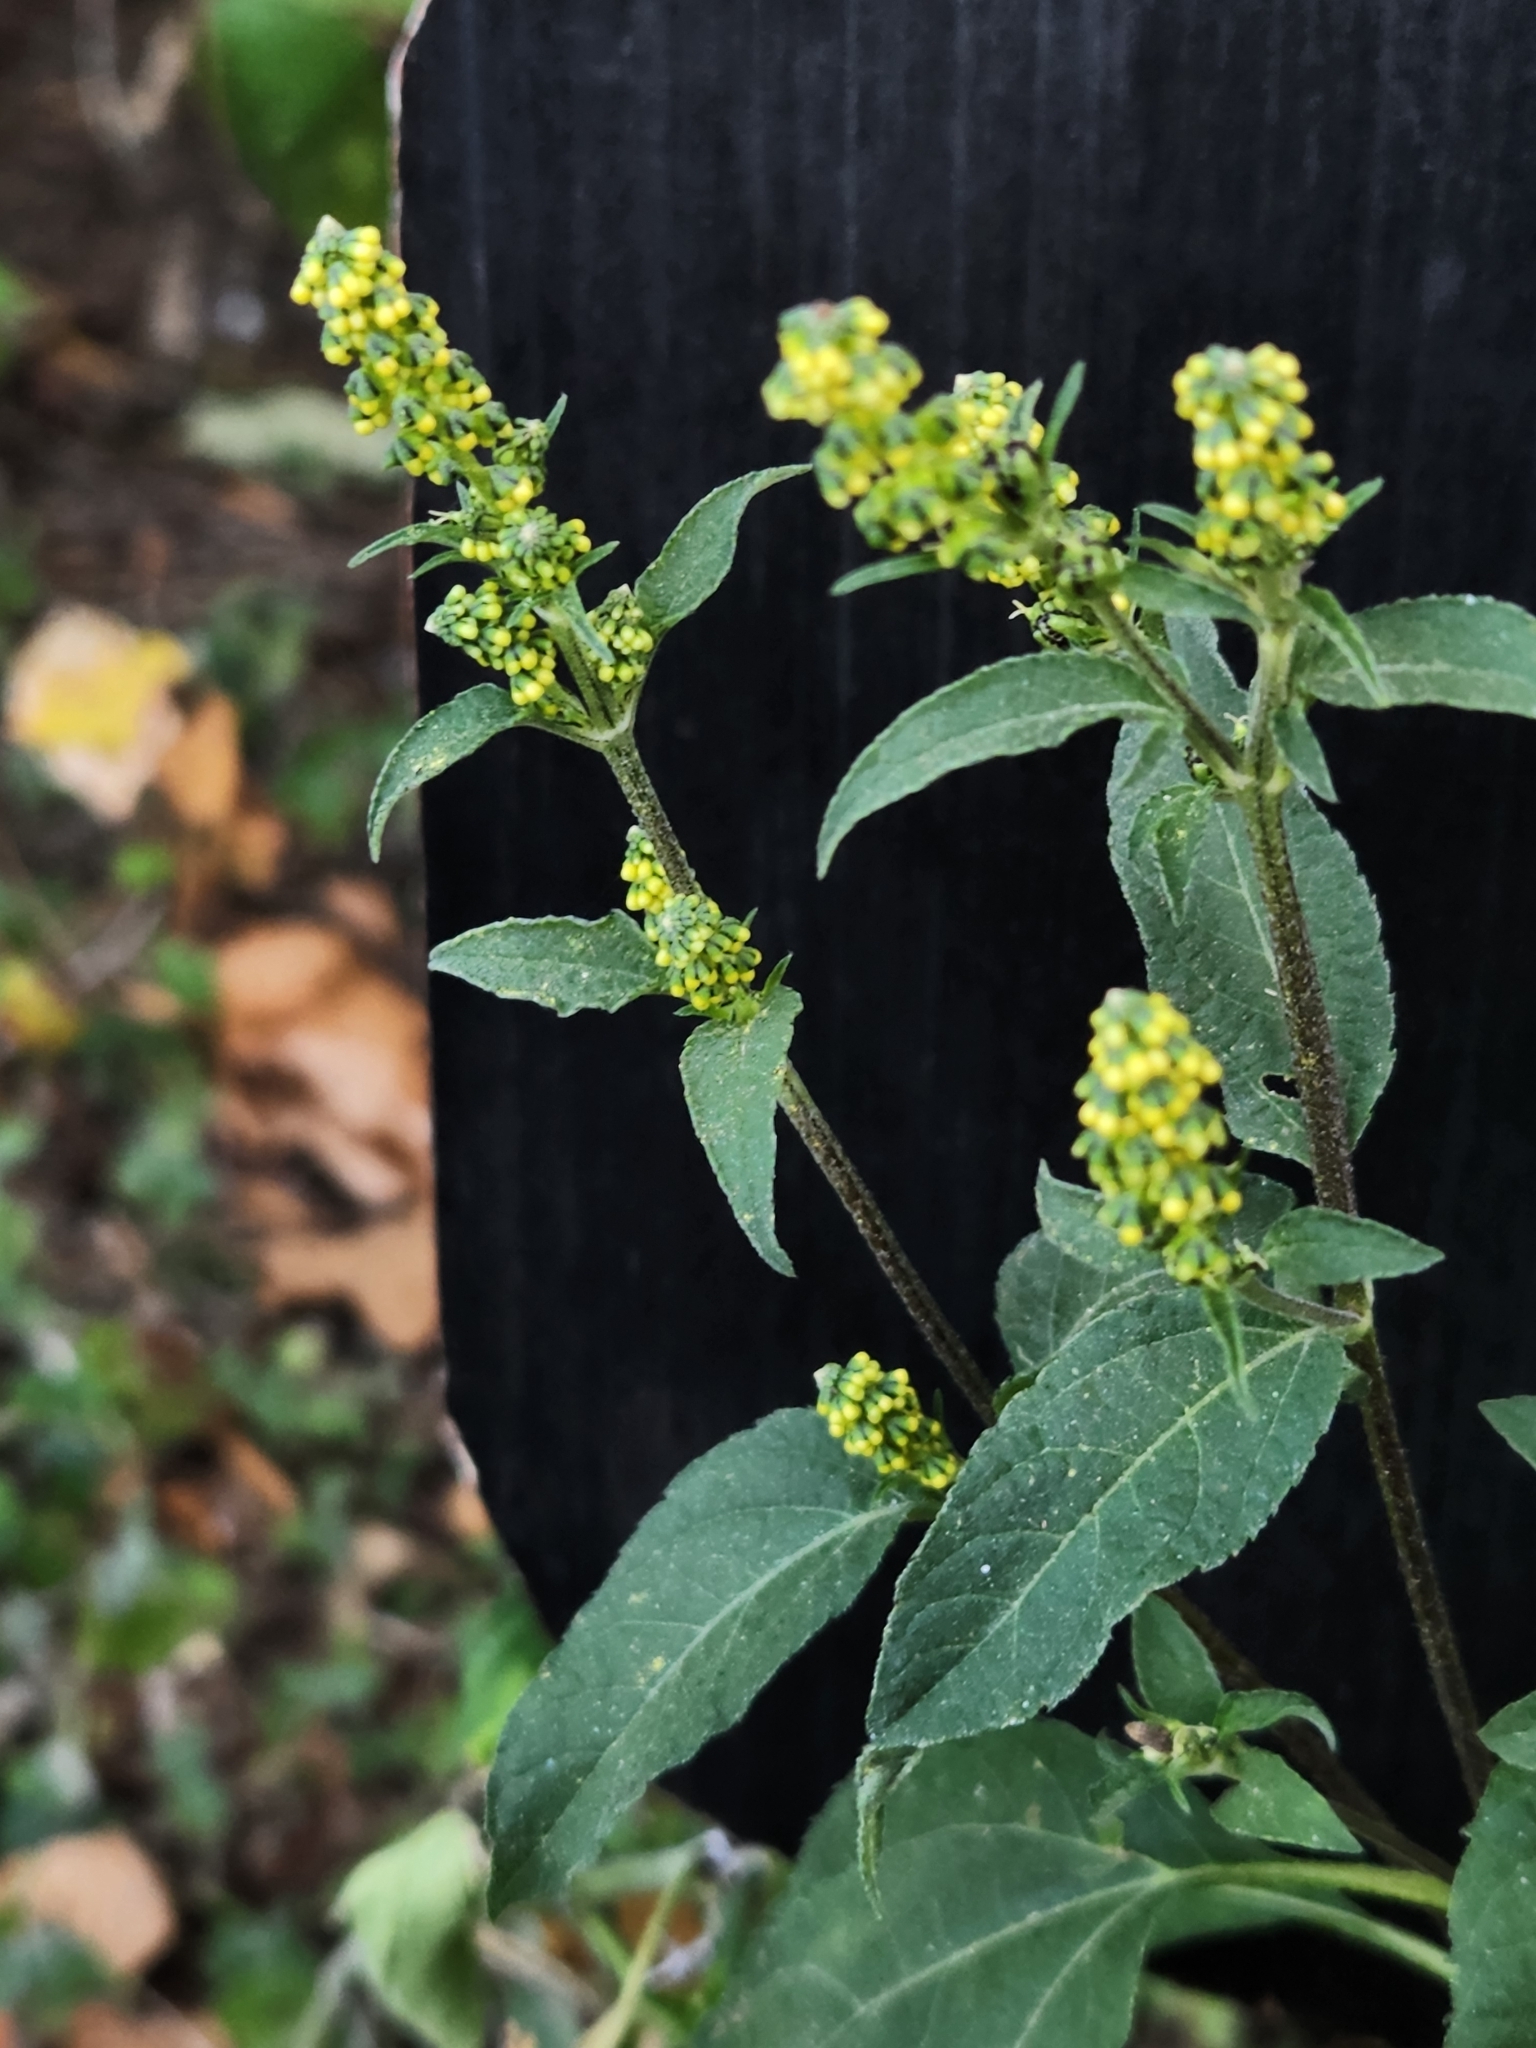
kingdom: Plantae
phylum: Tracheophyta
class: Magnoliopsida
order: Asterales
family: Asteraceae
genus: Ambrosia
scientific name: Ambrosia trifida
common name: Giant ragweed
